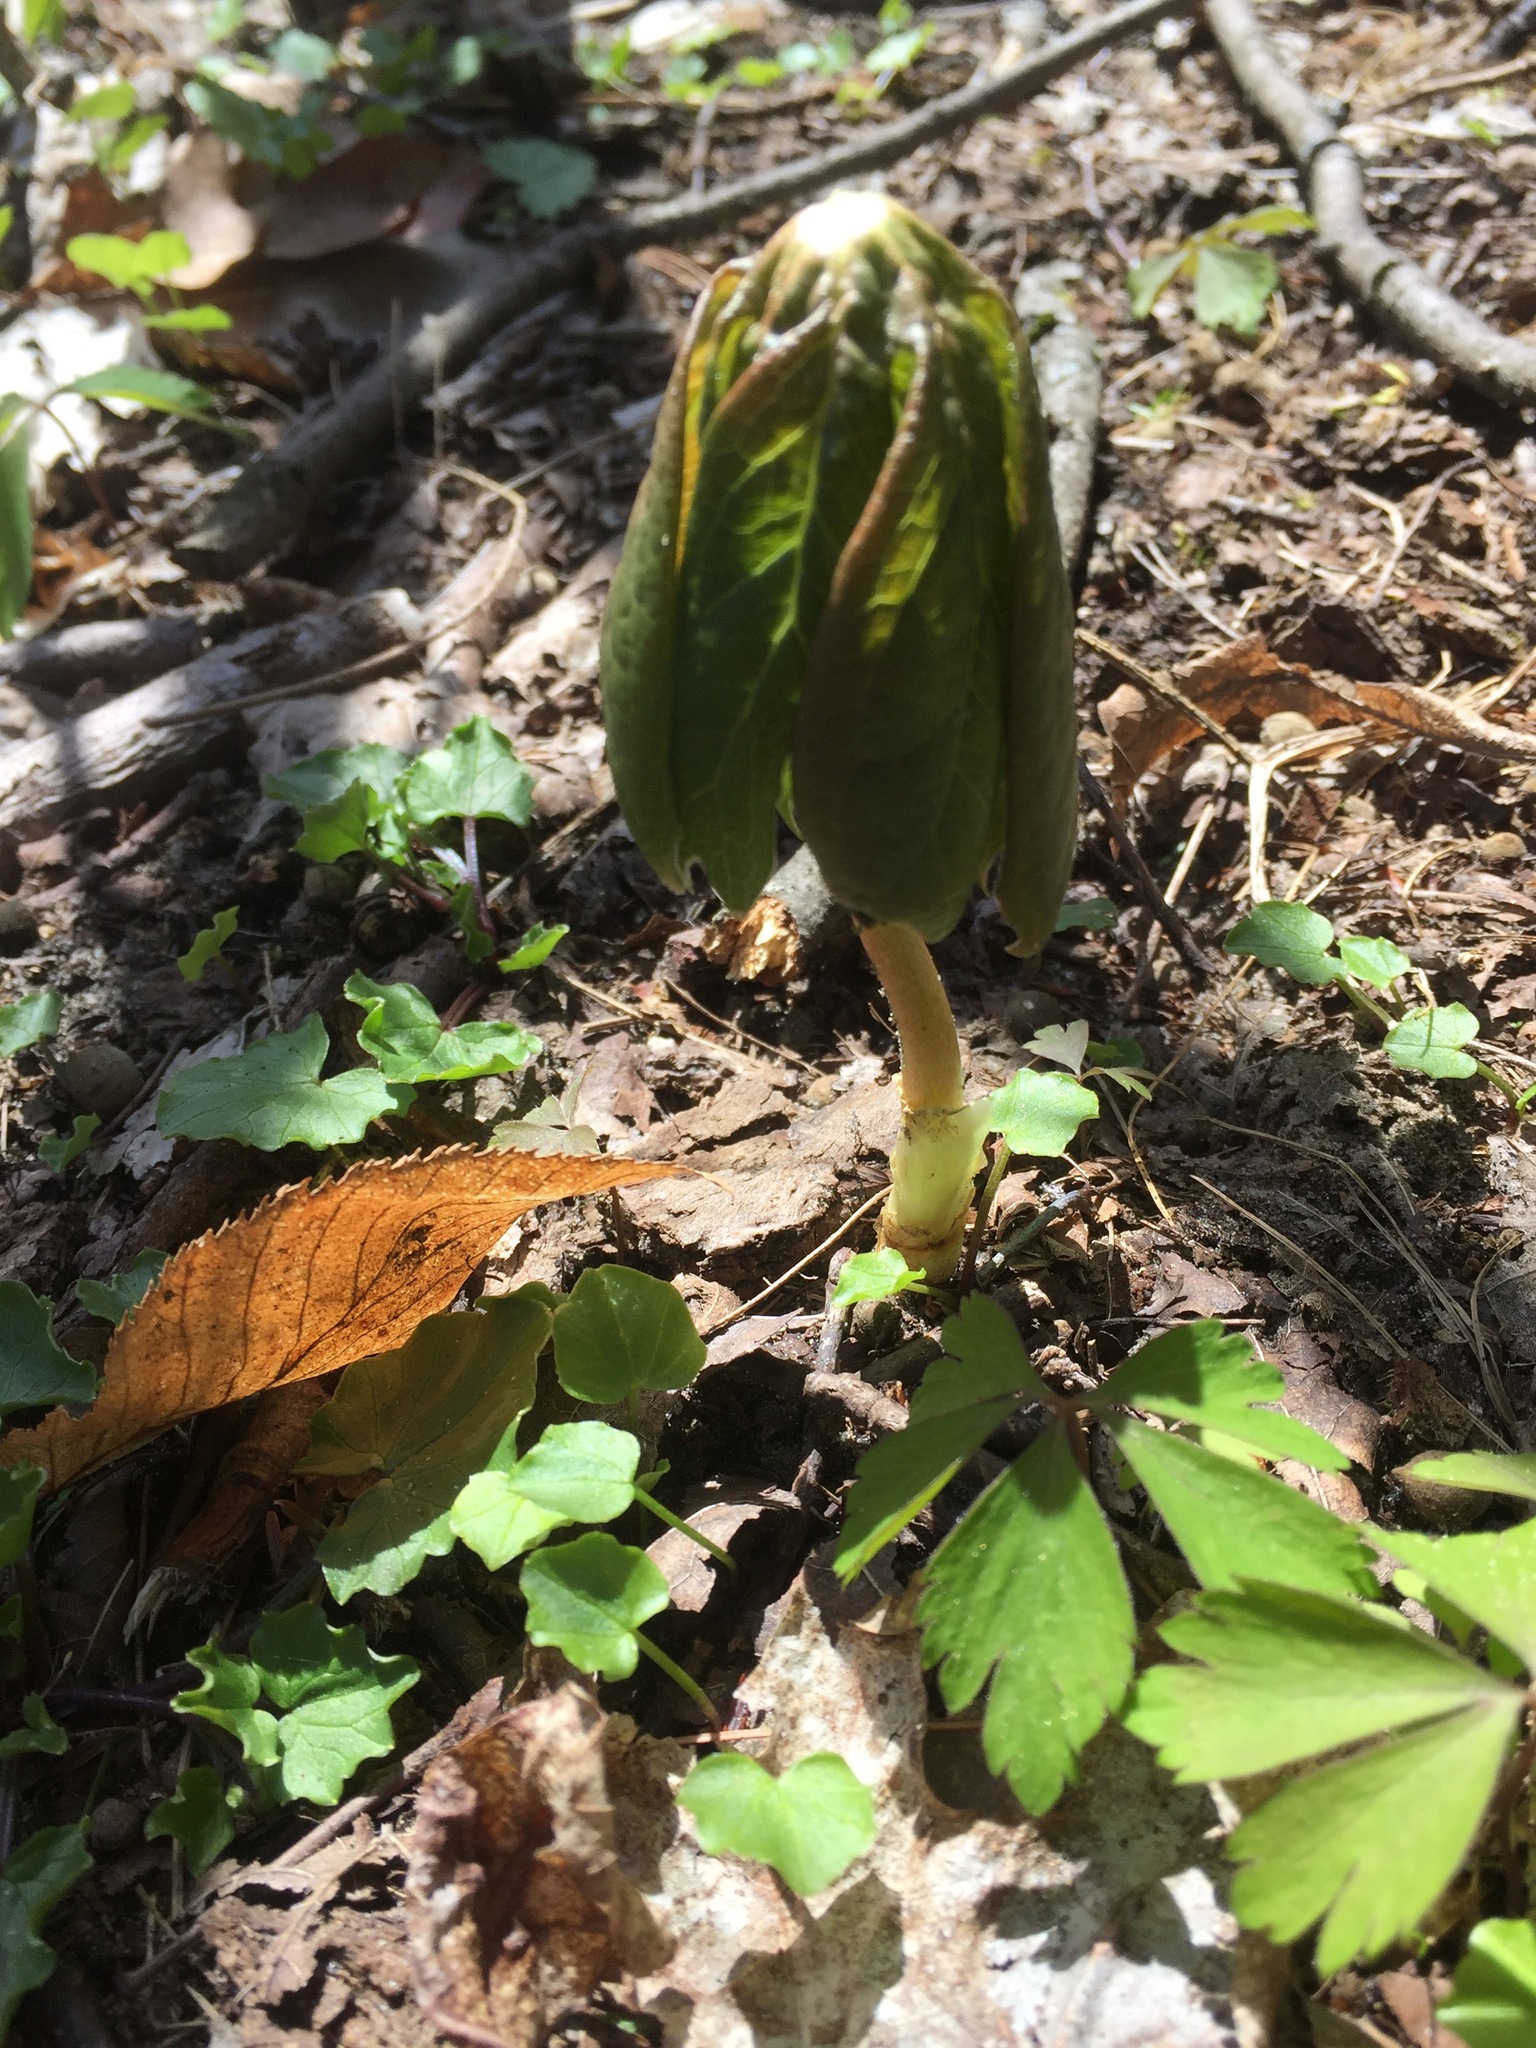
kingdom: Plantae
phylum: Tracheophyta
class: Magnoliopsida
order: Ranunculales
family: Berberidaceae
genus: Podophyllum
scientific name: Podophyllum peltatum
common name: Wild mandrake
